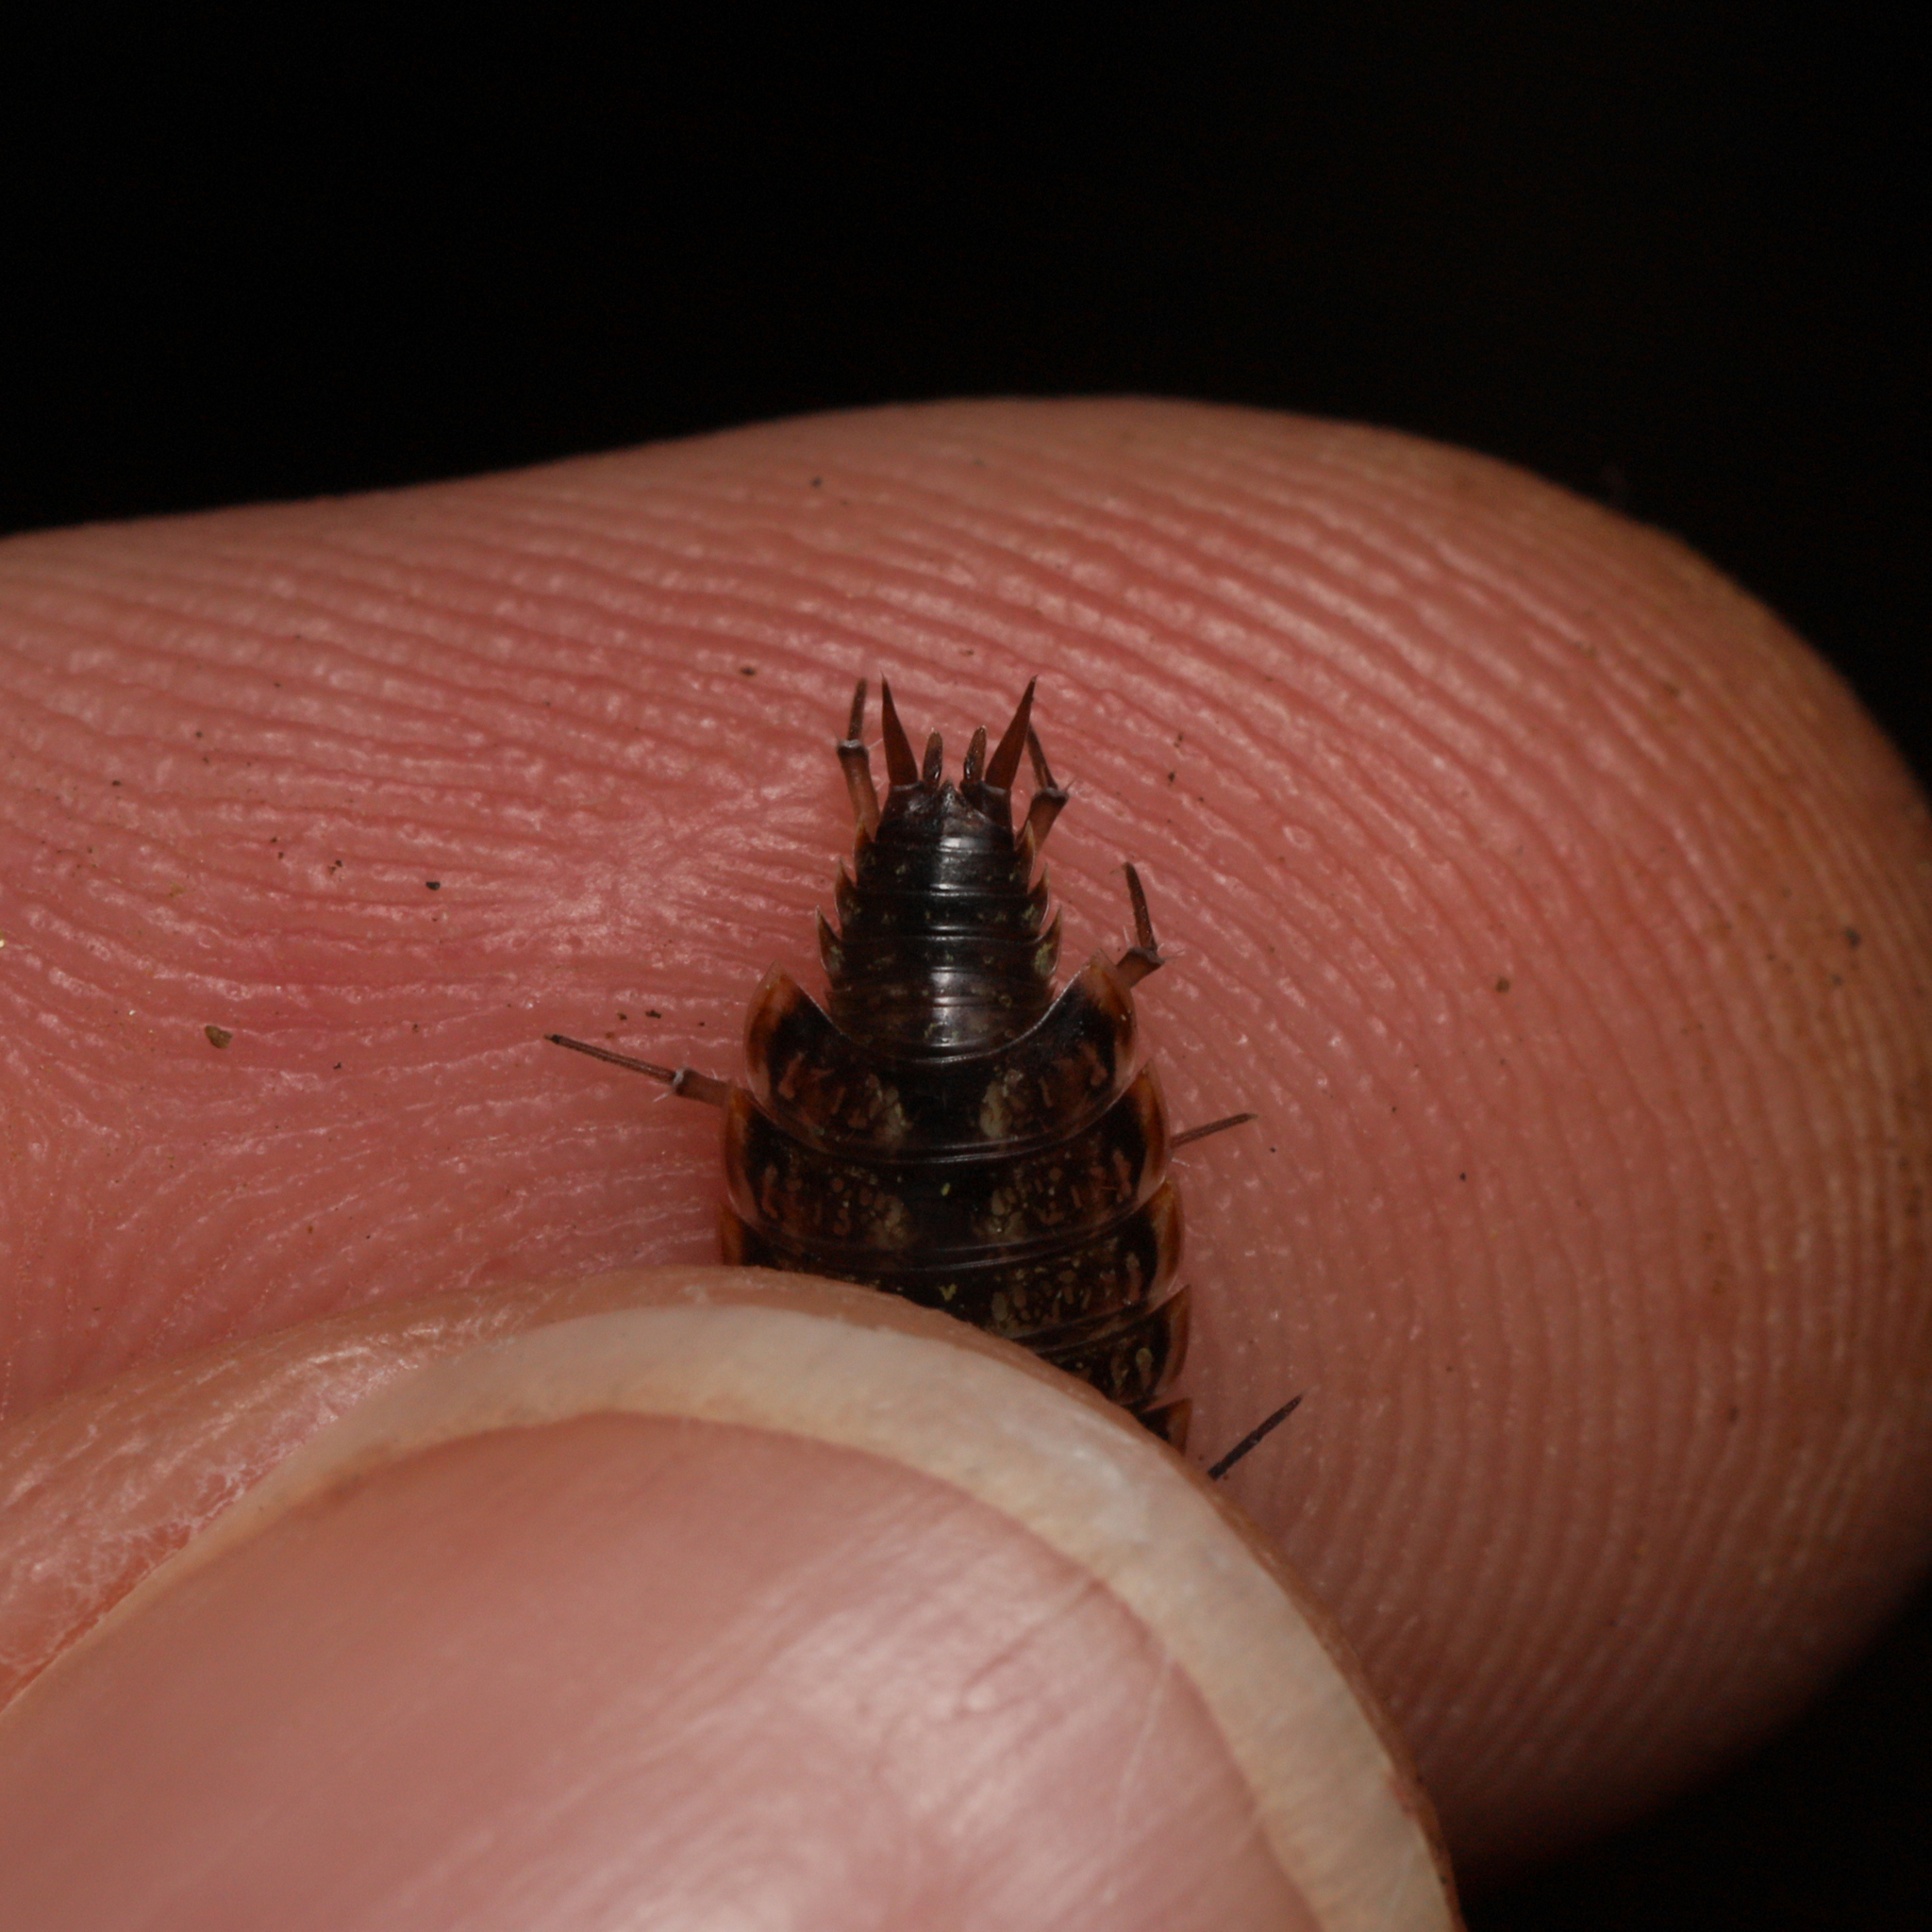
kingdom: Animalia
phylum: Arthropoda
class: Malacostraca
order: Isopoda
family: Philosciidae
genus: Philoscia
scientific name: Philoscia muscorum
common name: Common striped woodlouse
